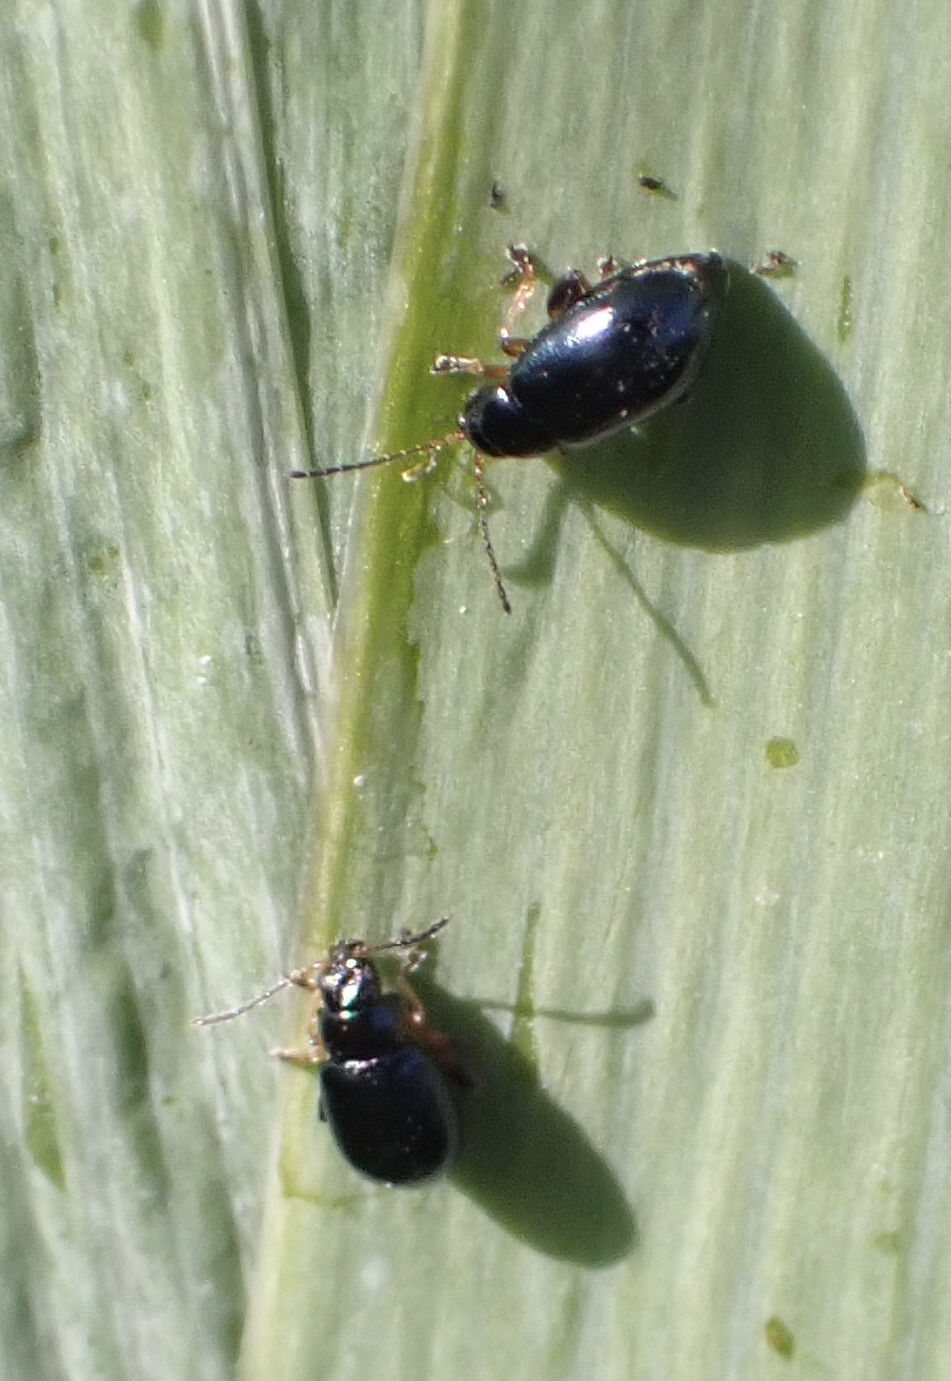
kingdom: Animalia
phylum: Arthropoda
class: Insecta
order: Coleoptera
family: Chrysomelidae
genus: Aphthona
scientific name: Aphthona nonstriata
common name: Iris flea beetle
